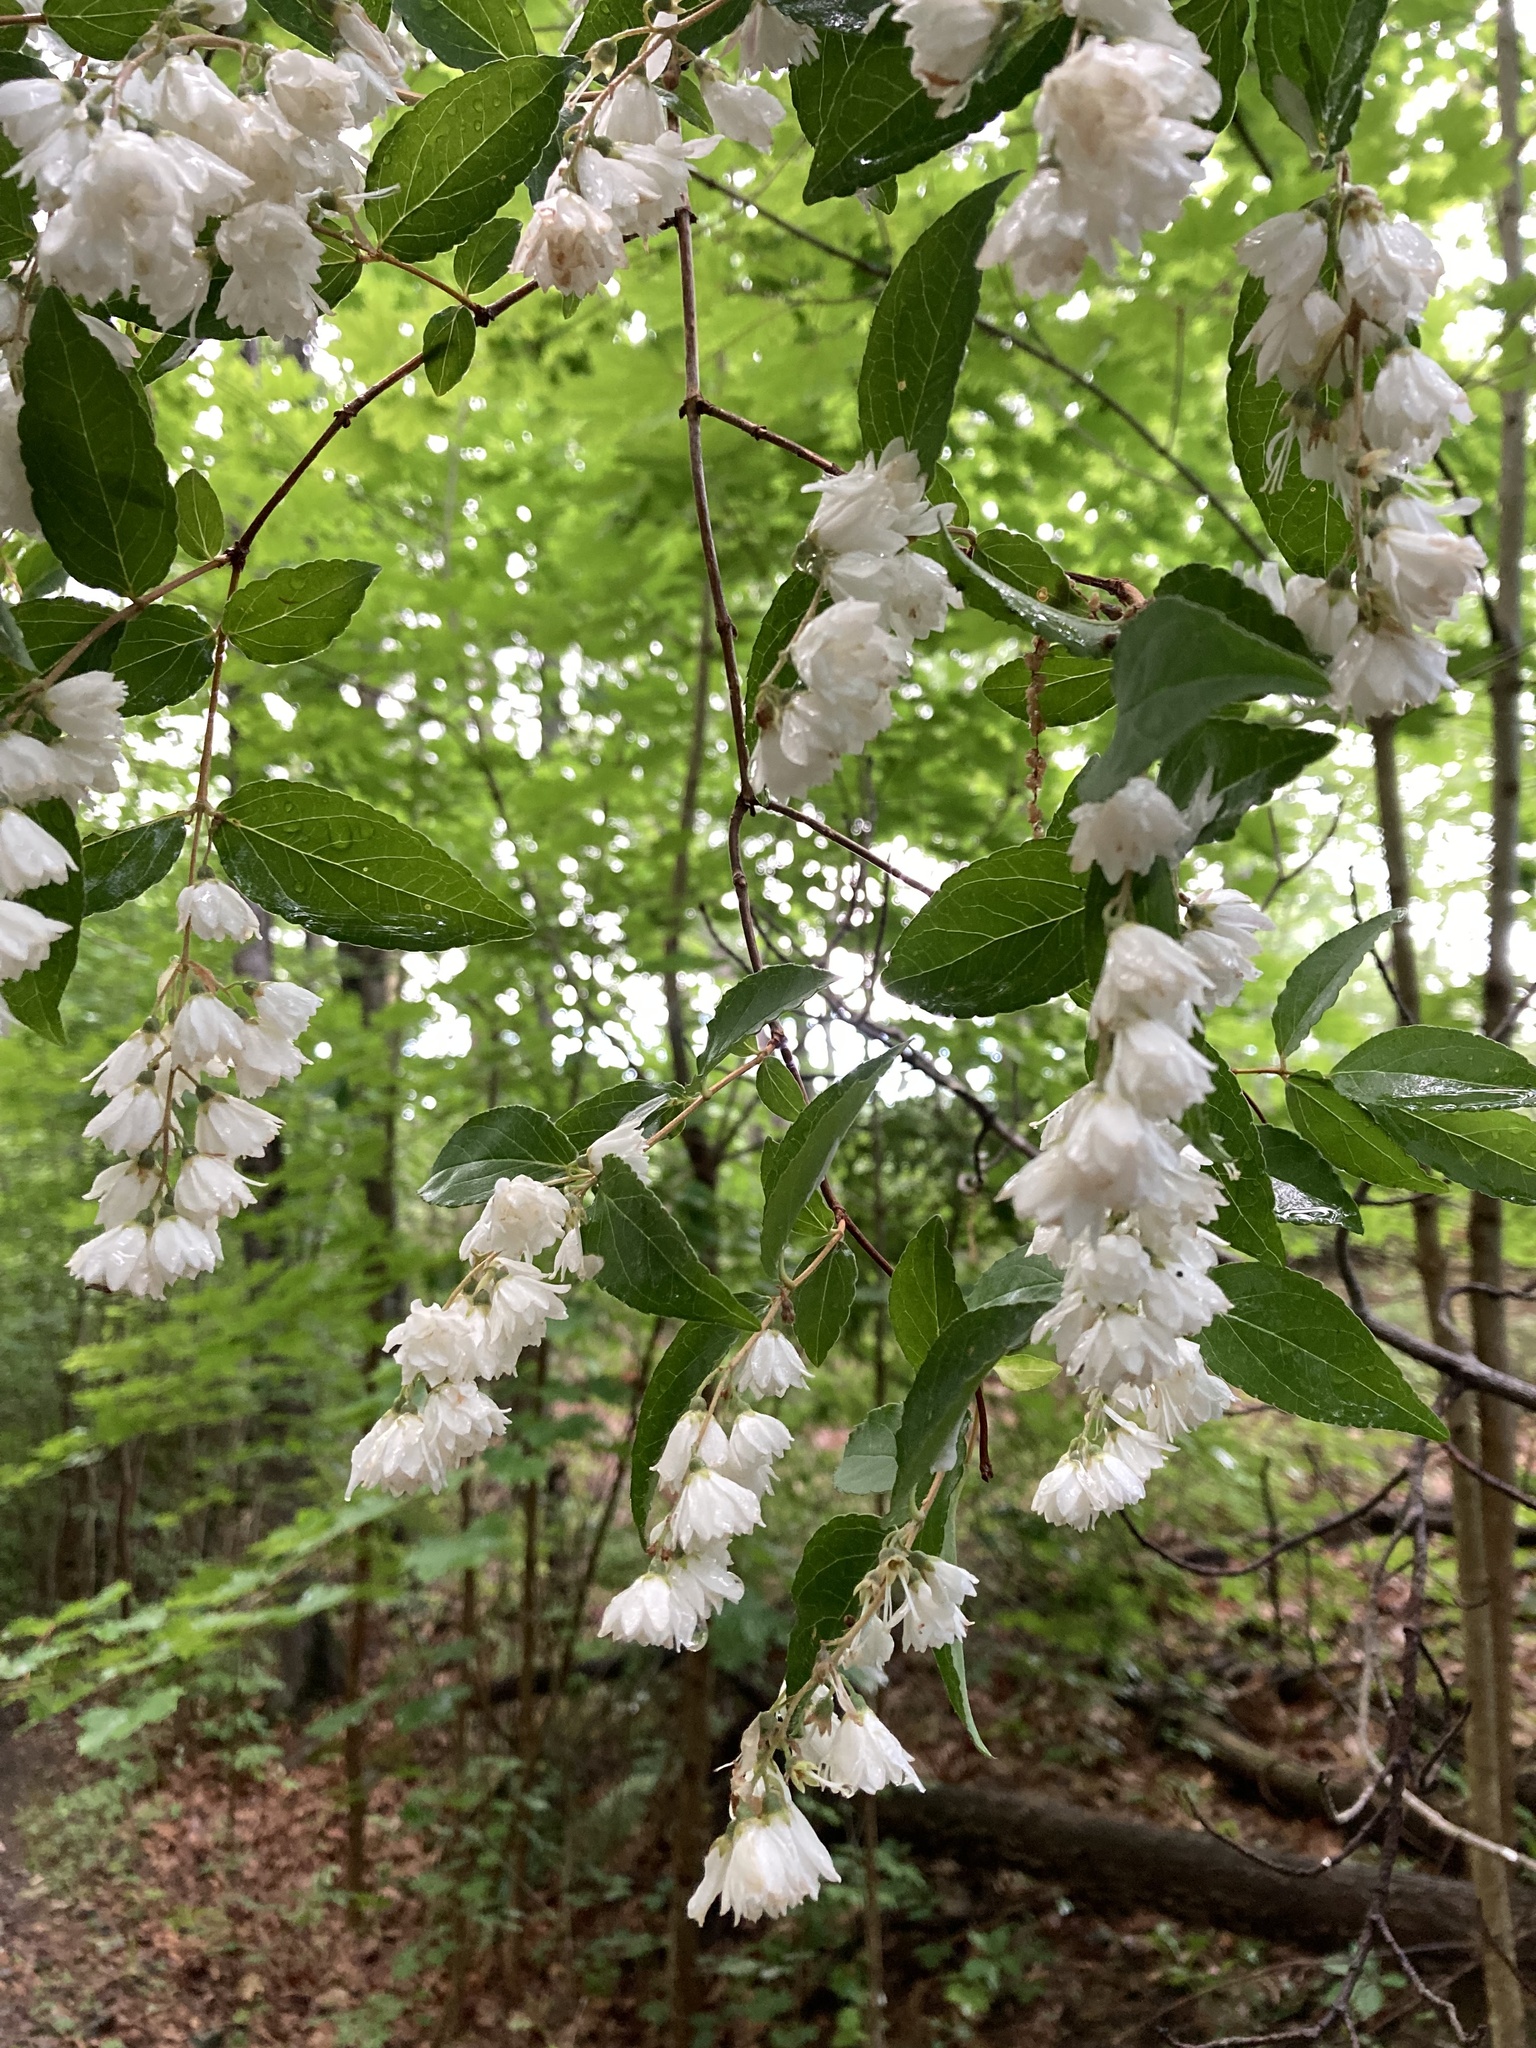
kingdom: Plantae
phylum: Tracheophyta
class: Magnoliopsida
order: Cornales
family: Hydrangeaceae
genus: Deutzia
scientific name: Deutzia crenata
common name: Deutzia
